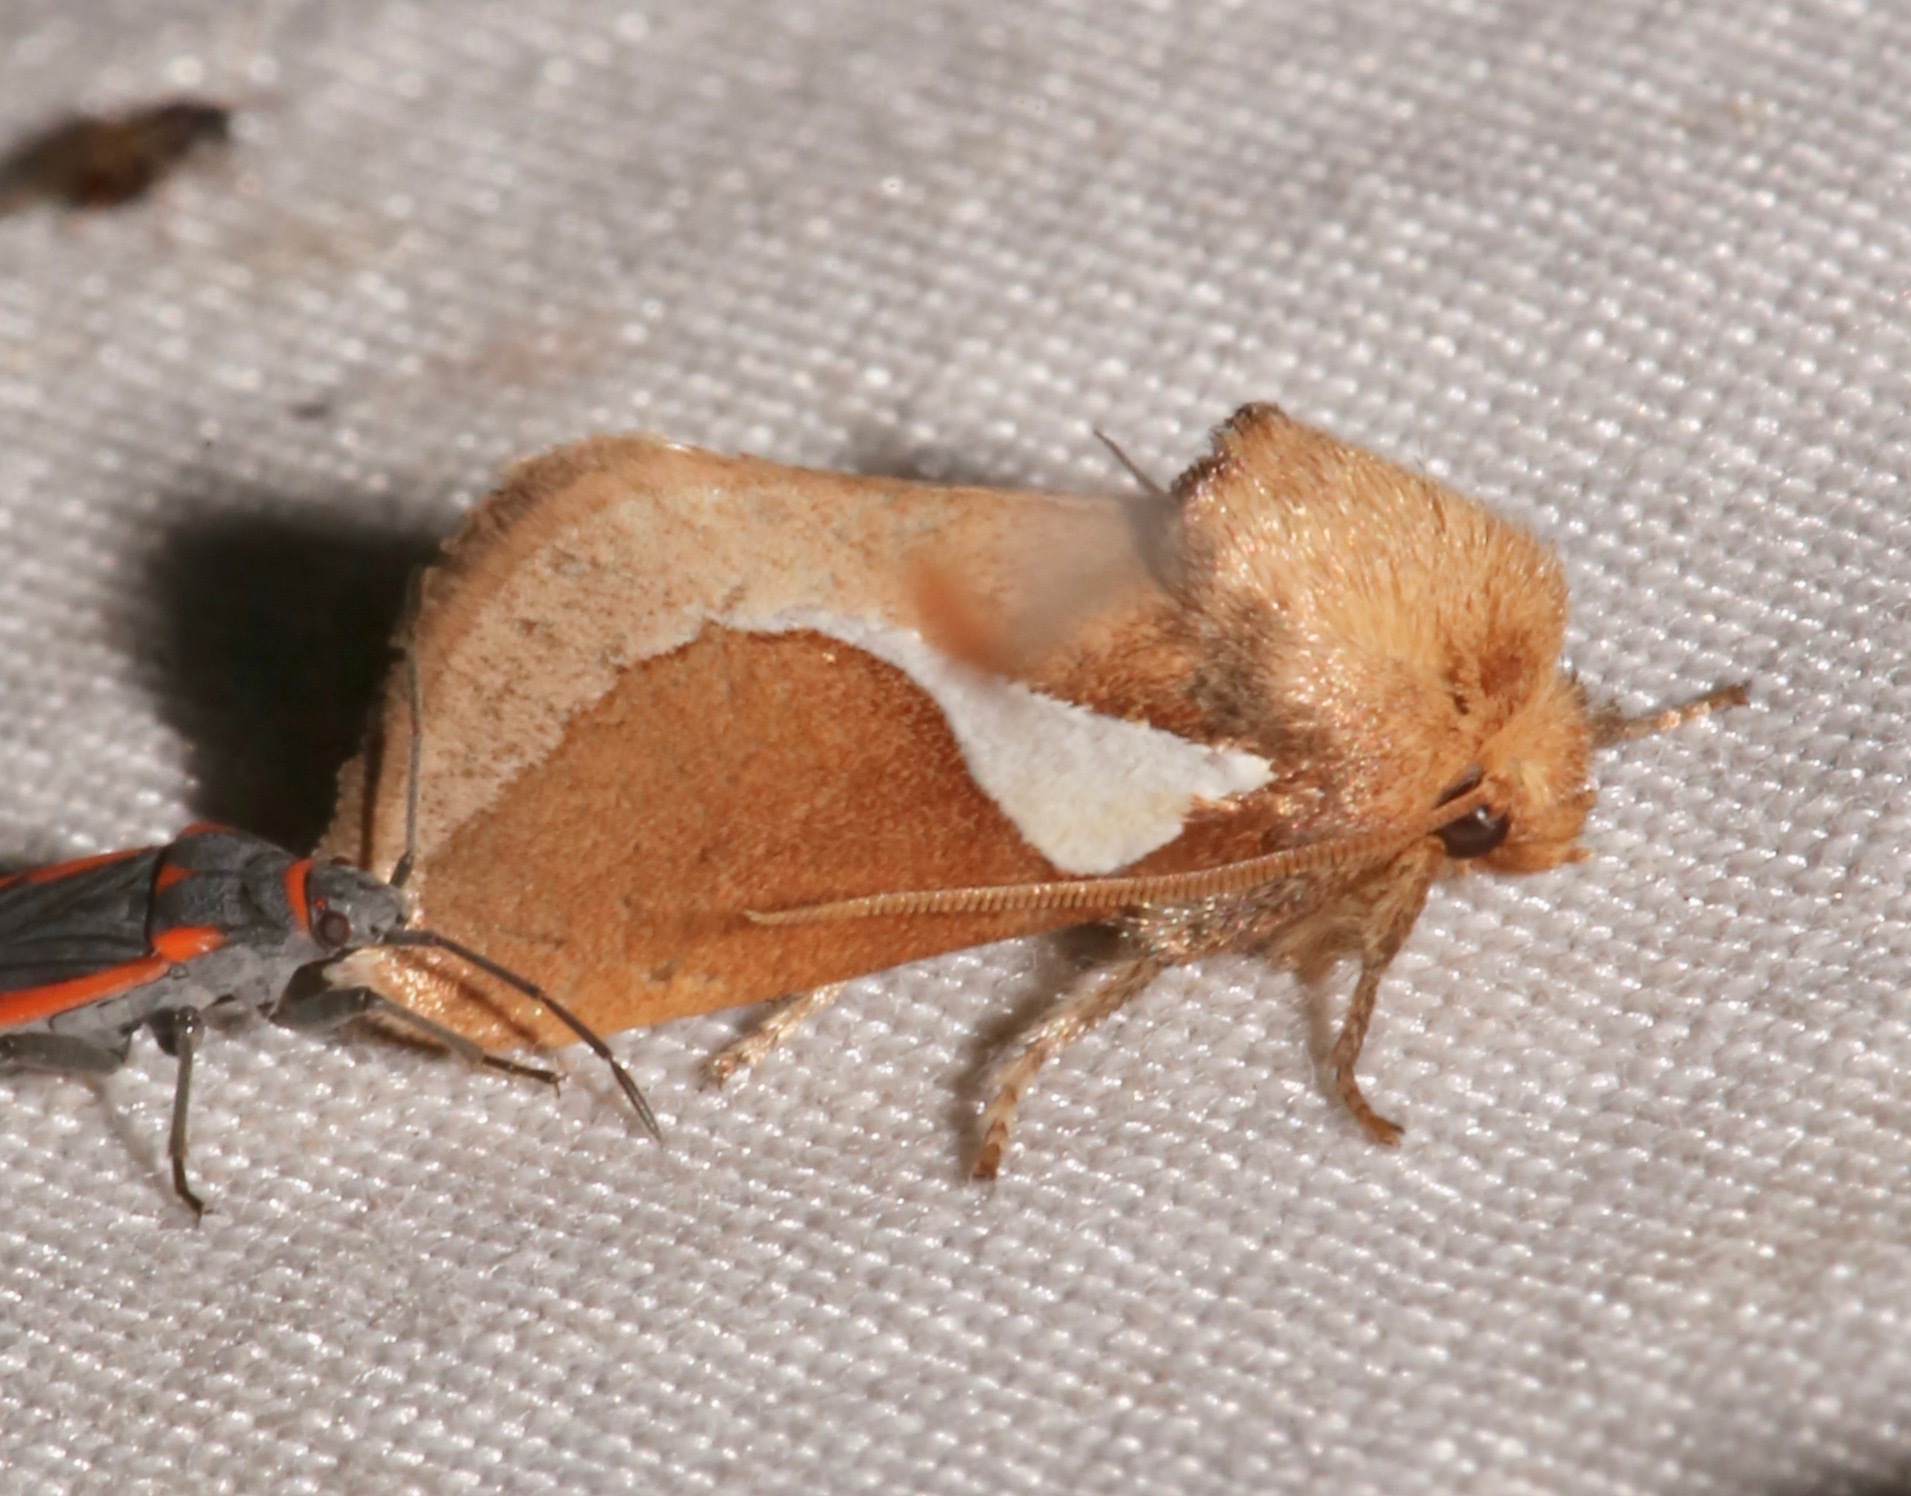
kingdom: Animalia
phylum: Arthropoda
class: Insecta
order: Lepidoptera
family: Limacodidae
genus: Prolimacodes
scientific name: Prolimacodes trigona
